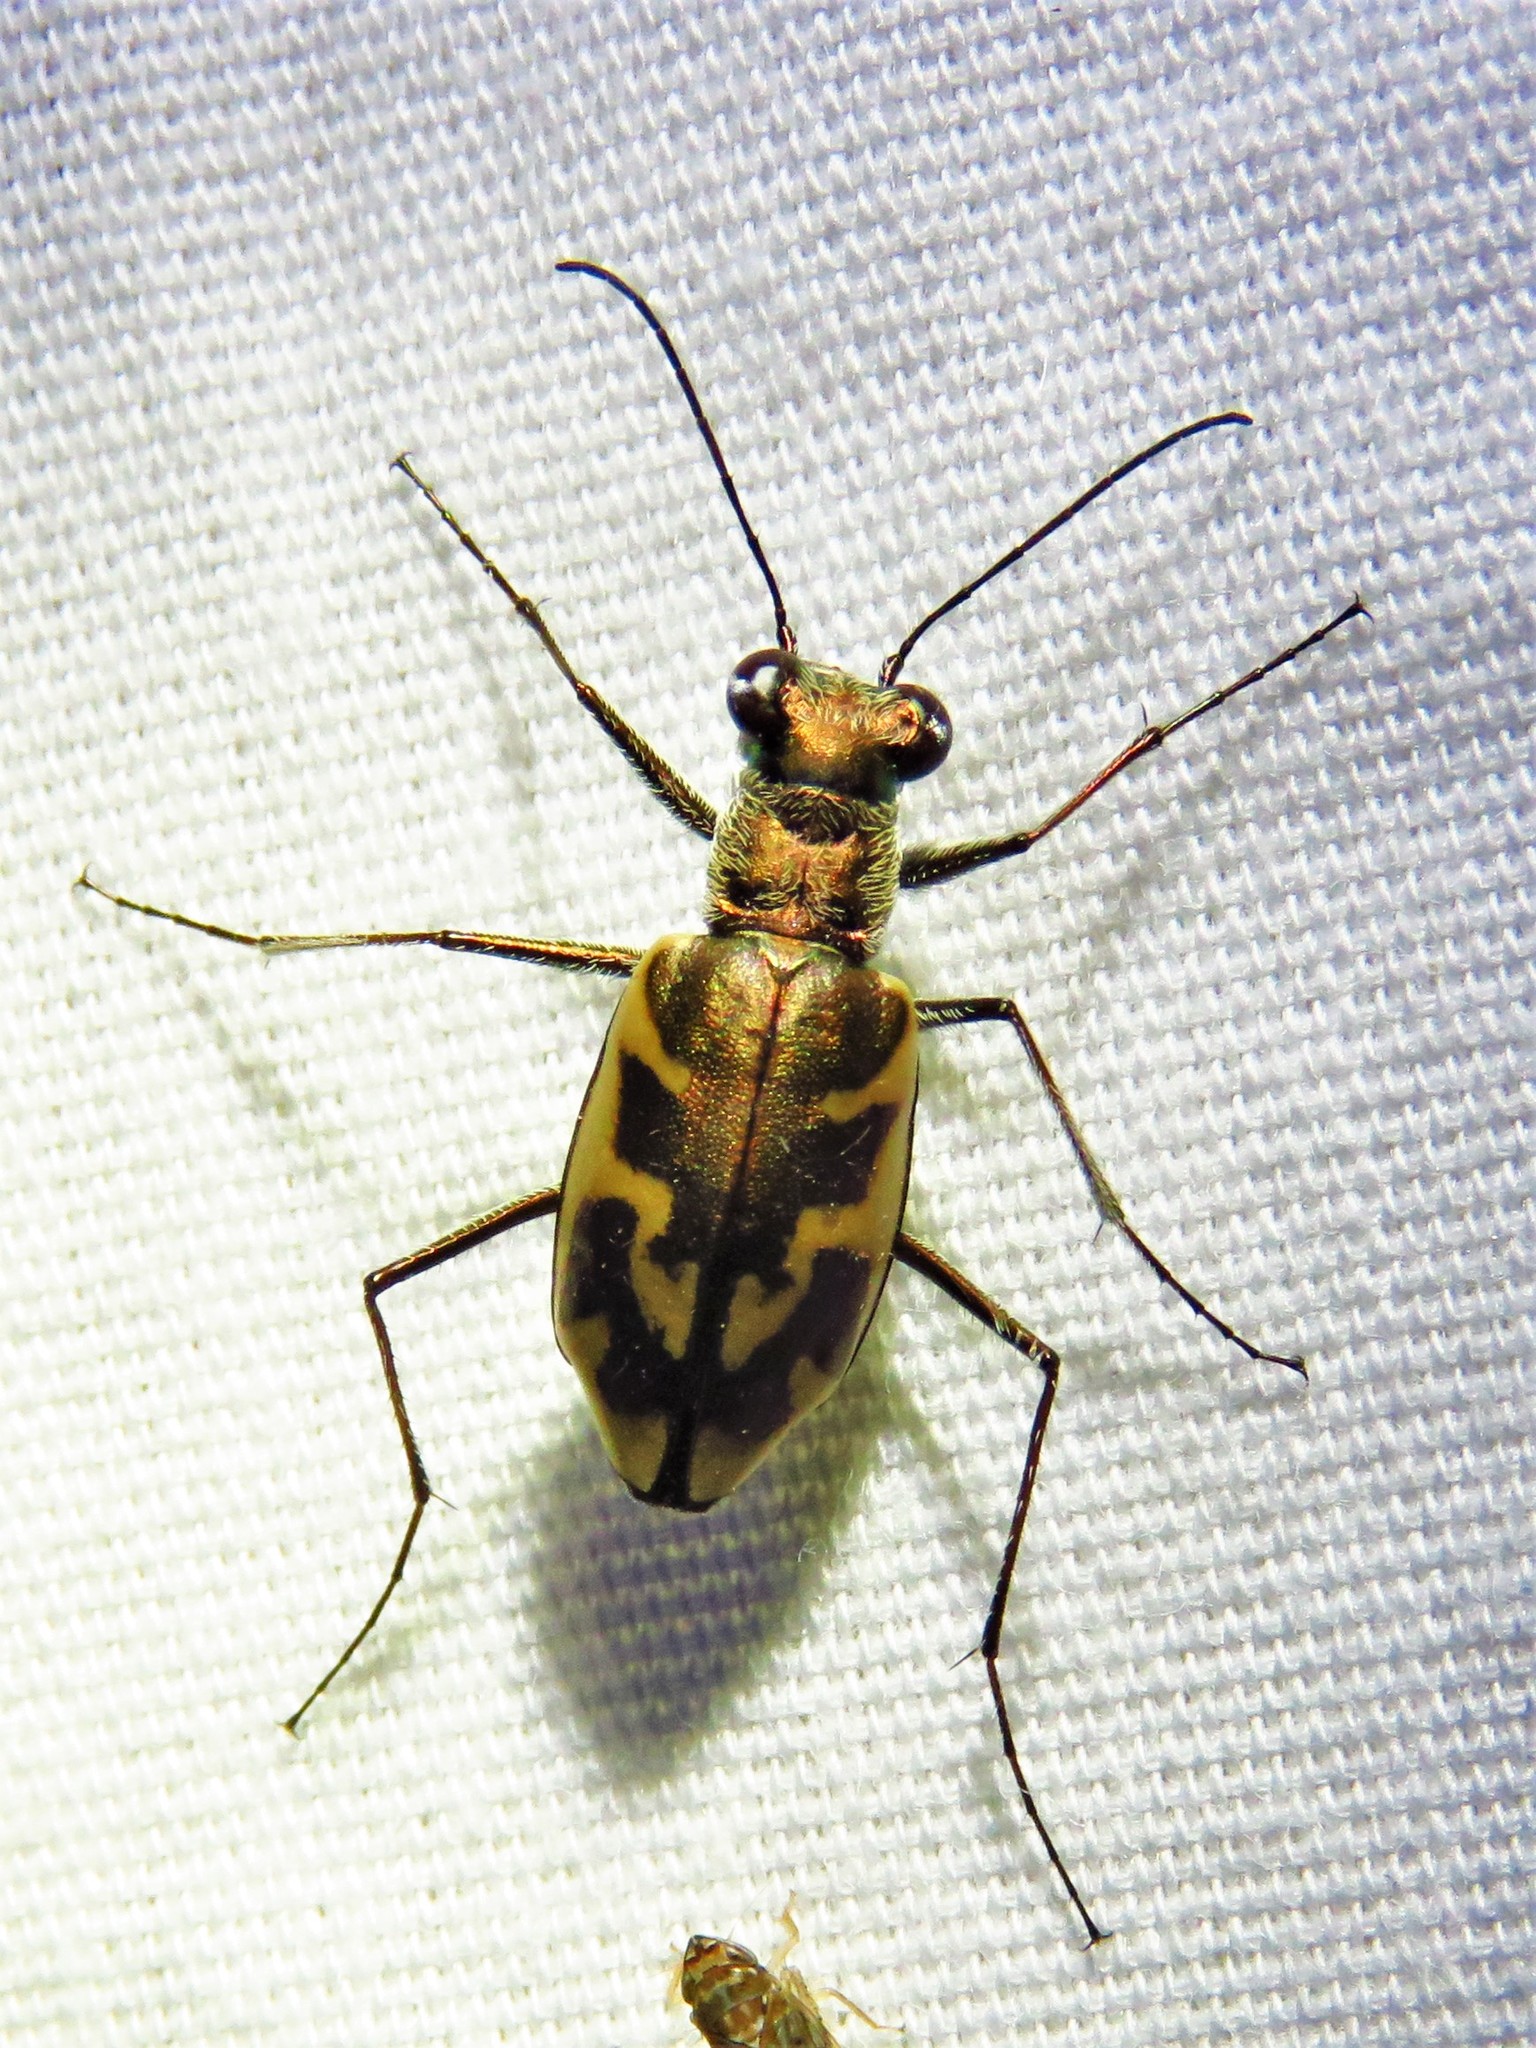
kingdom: Animalia
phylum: Arthropoda
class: Insecta
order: Coleoptera
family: Carabidae
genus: Ellipsoptera
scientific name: Ellipsoptera nevadica
